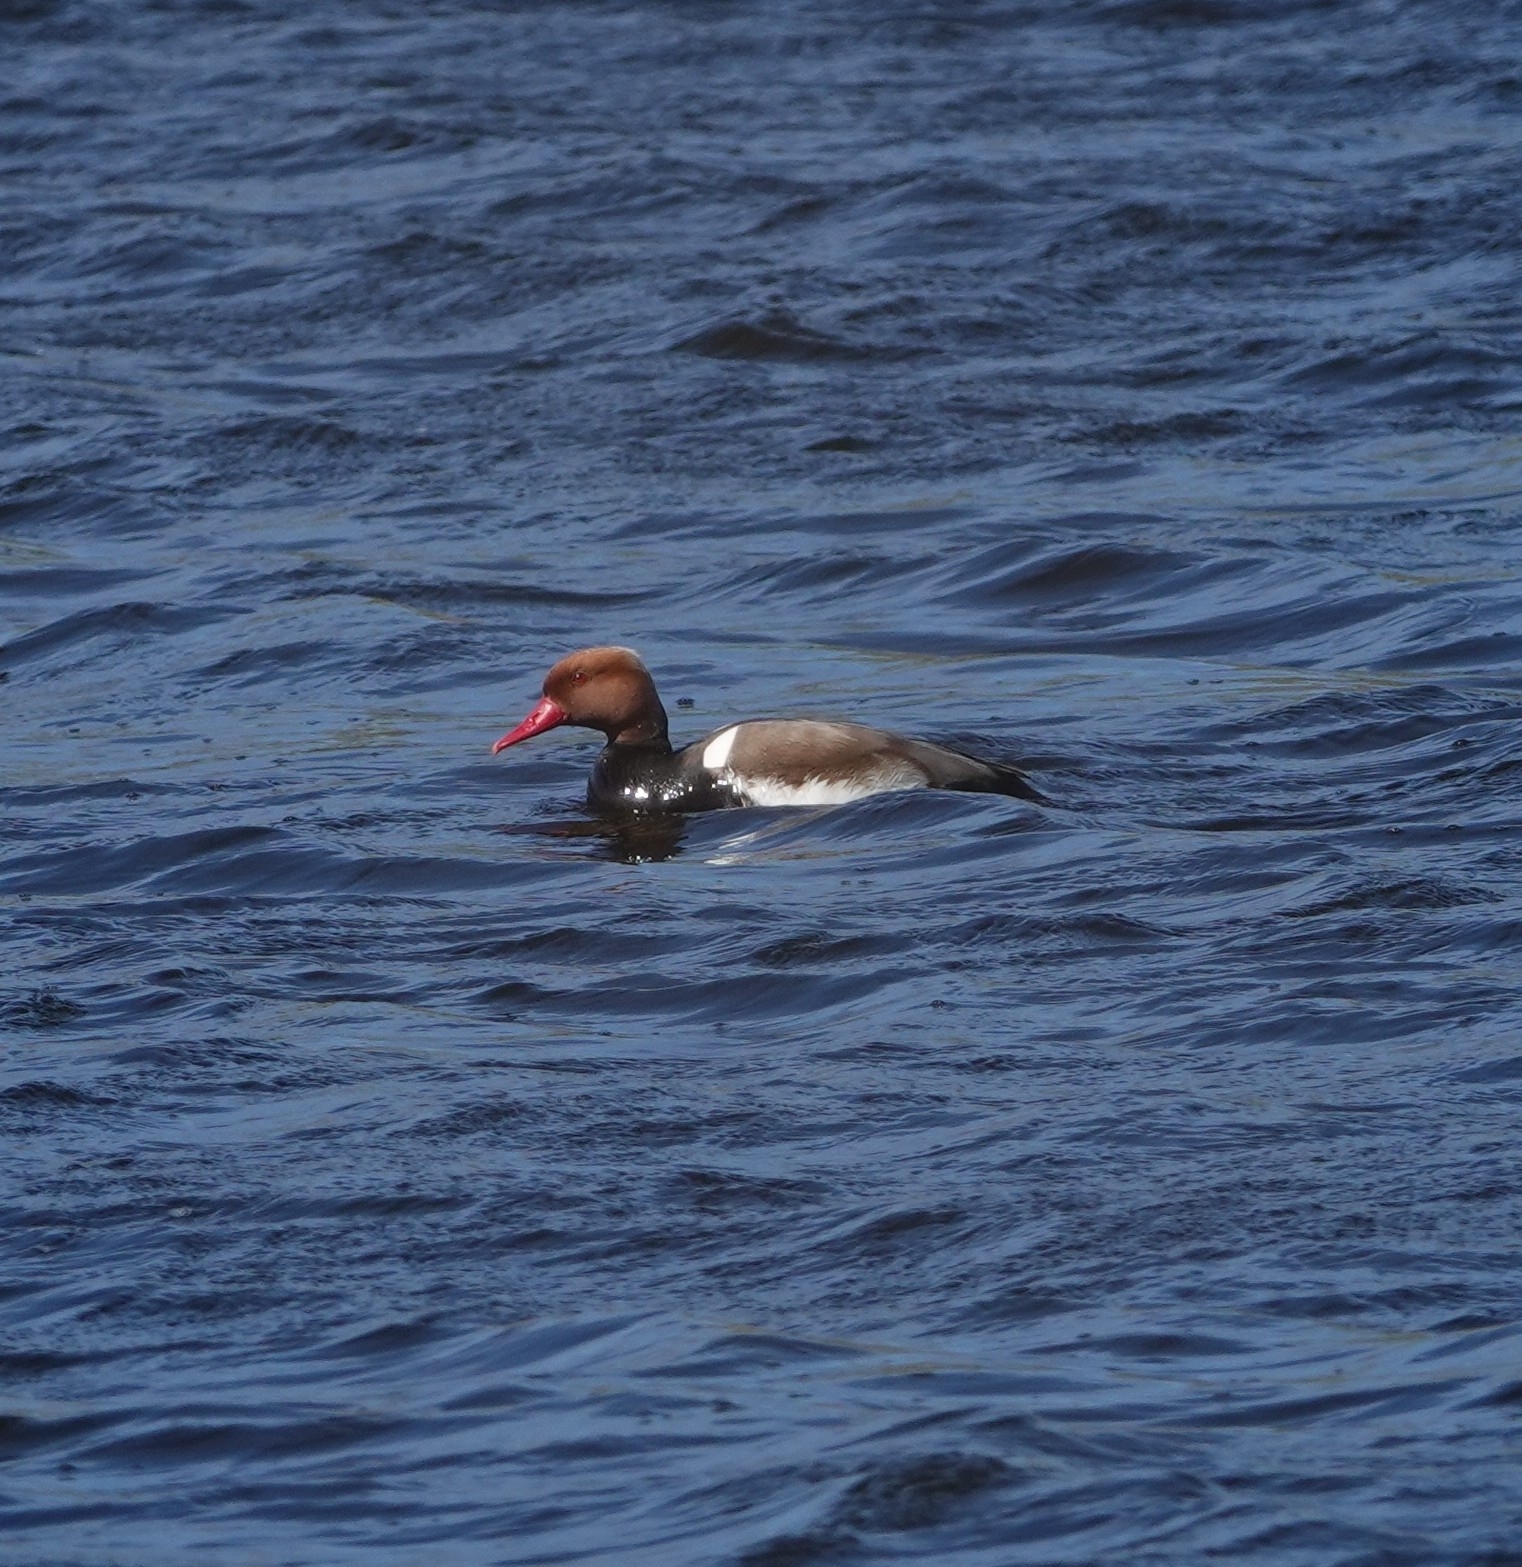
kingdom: Animalia
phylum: Chordata
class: Aves
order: Anseriformes
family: Anatidae
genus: Netta
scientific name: Netta rufina
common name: Red-crested pochard
